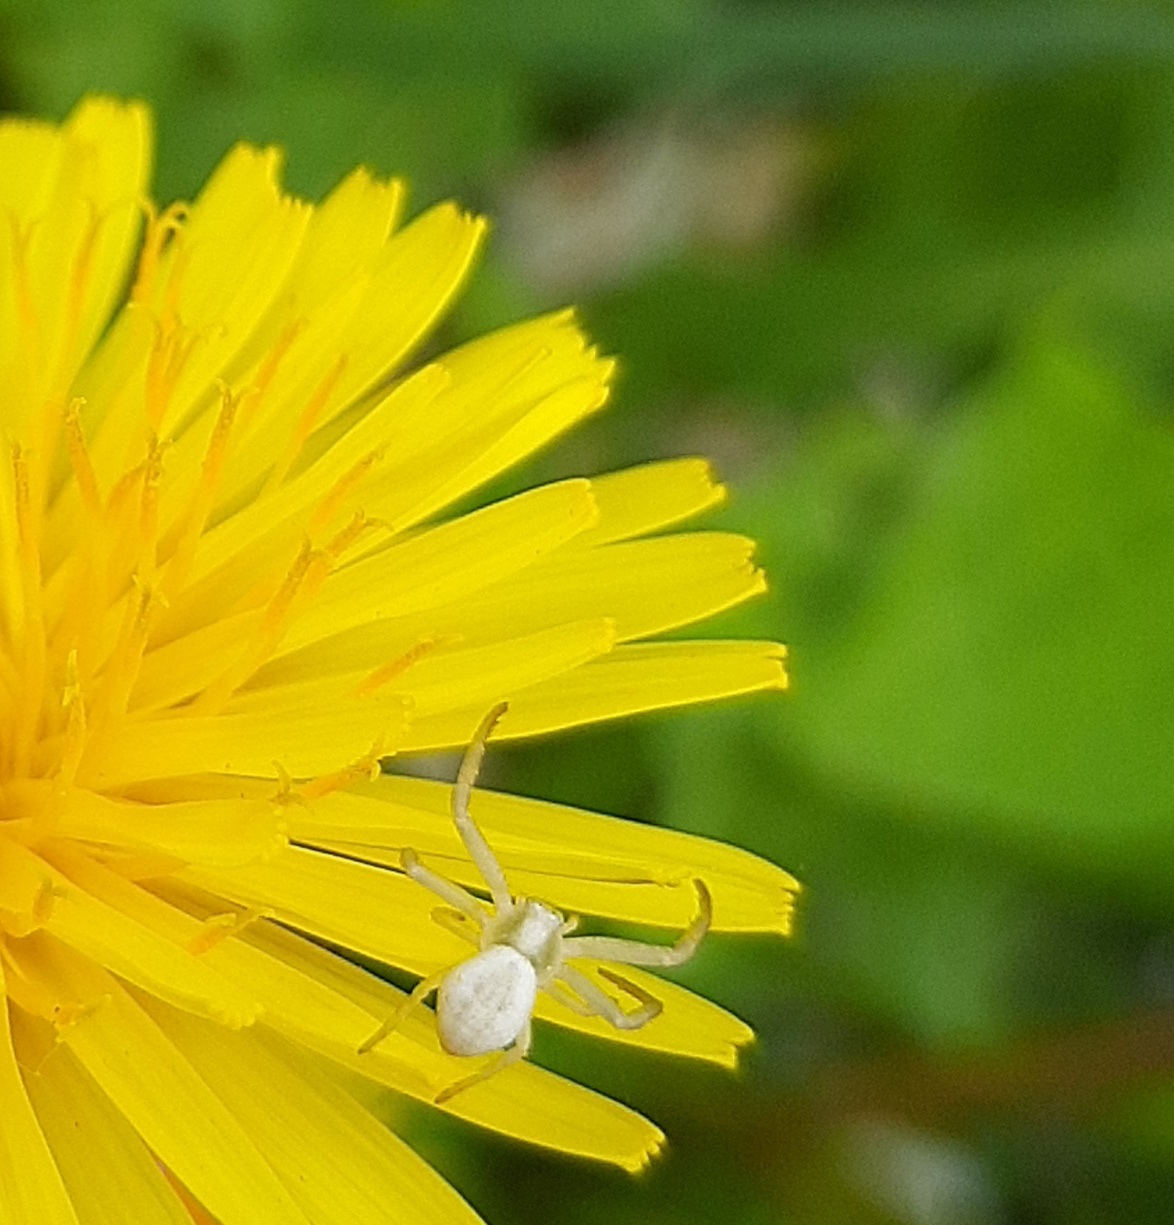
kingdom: Animalia
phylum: Arthropoda
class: Arachnida
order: Araneae
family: Thomisidae
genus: Misumena
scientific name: Misumena vatia
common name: Goldenrod crab spider
